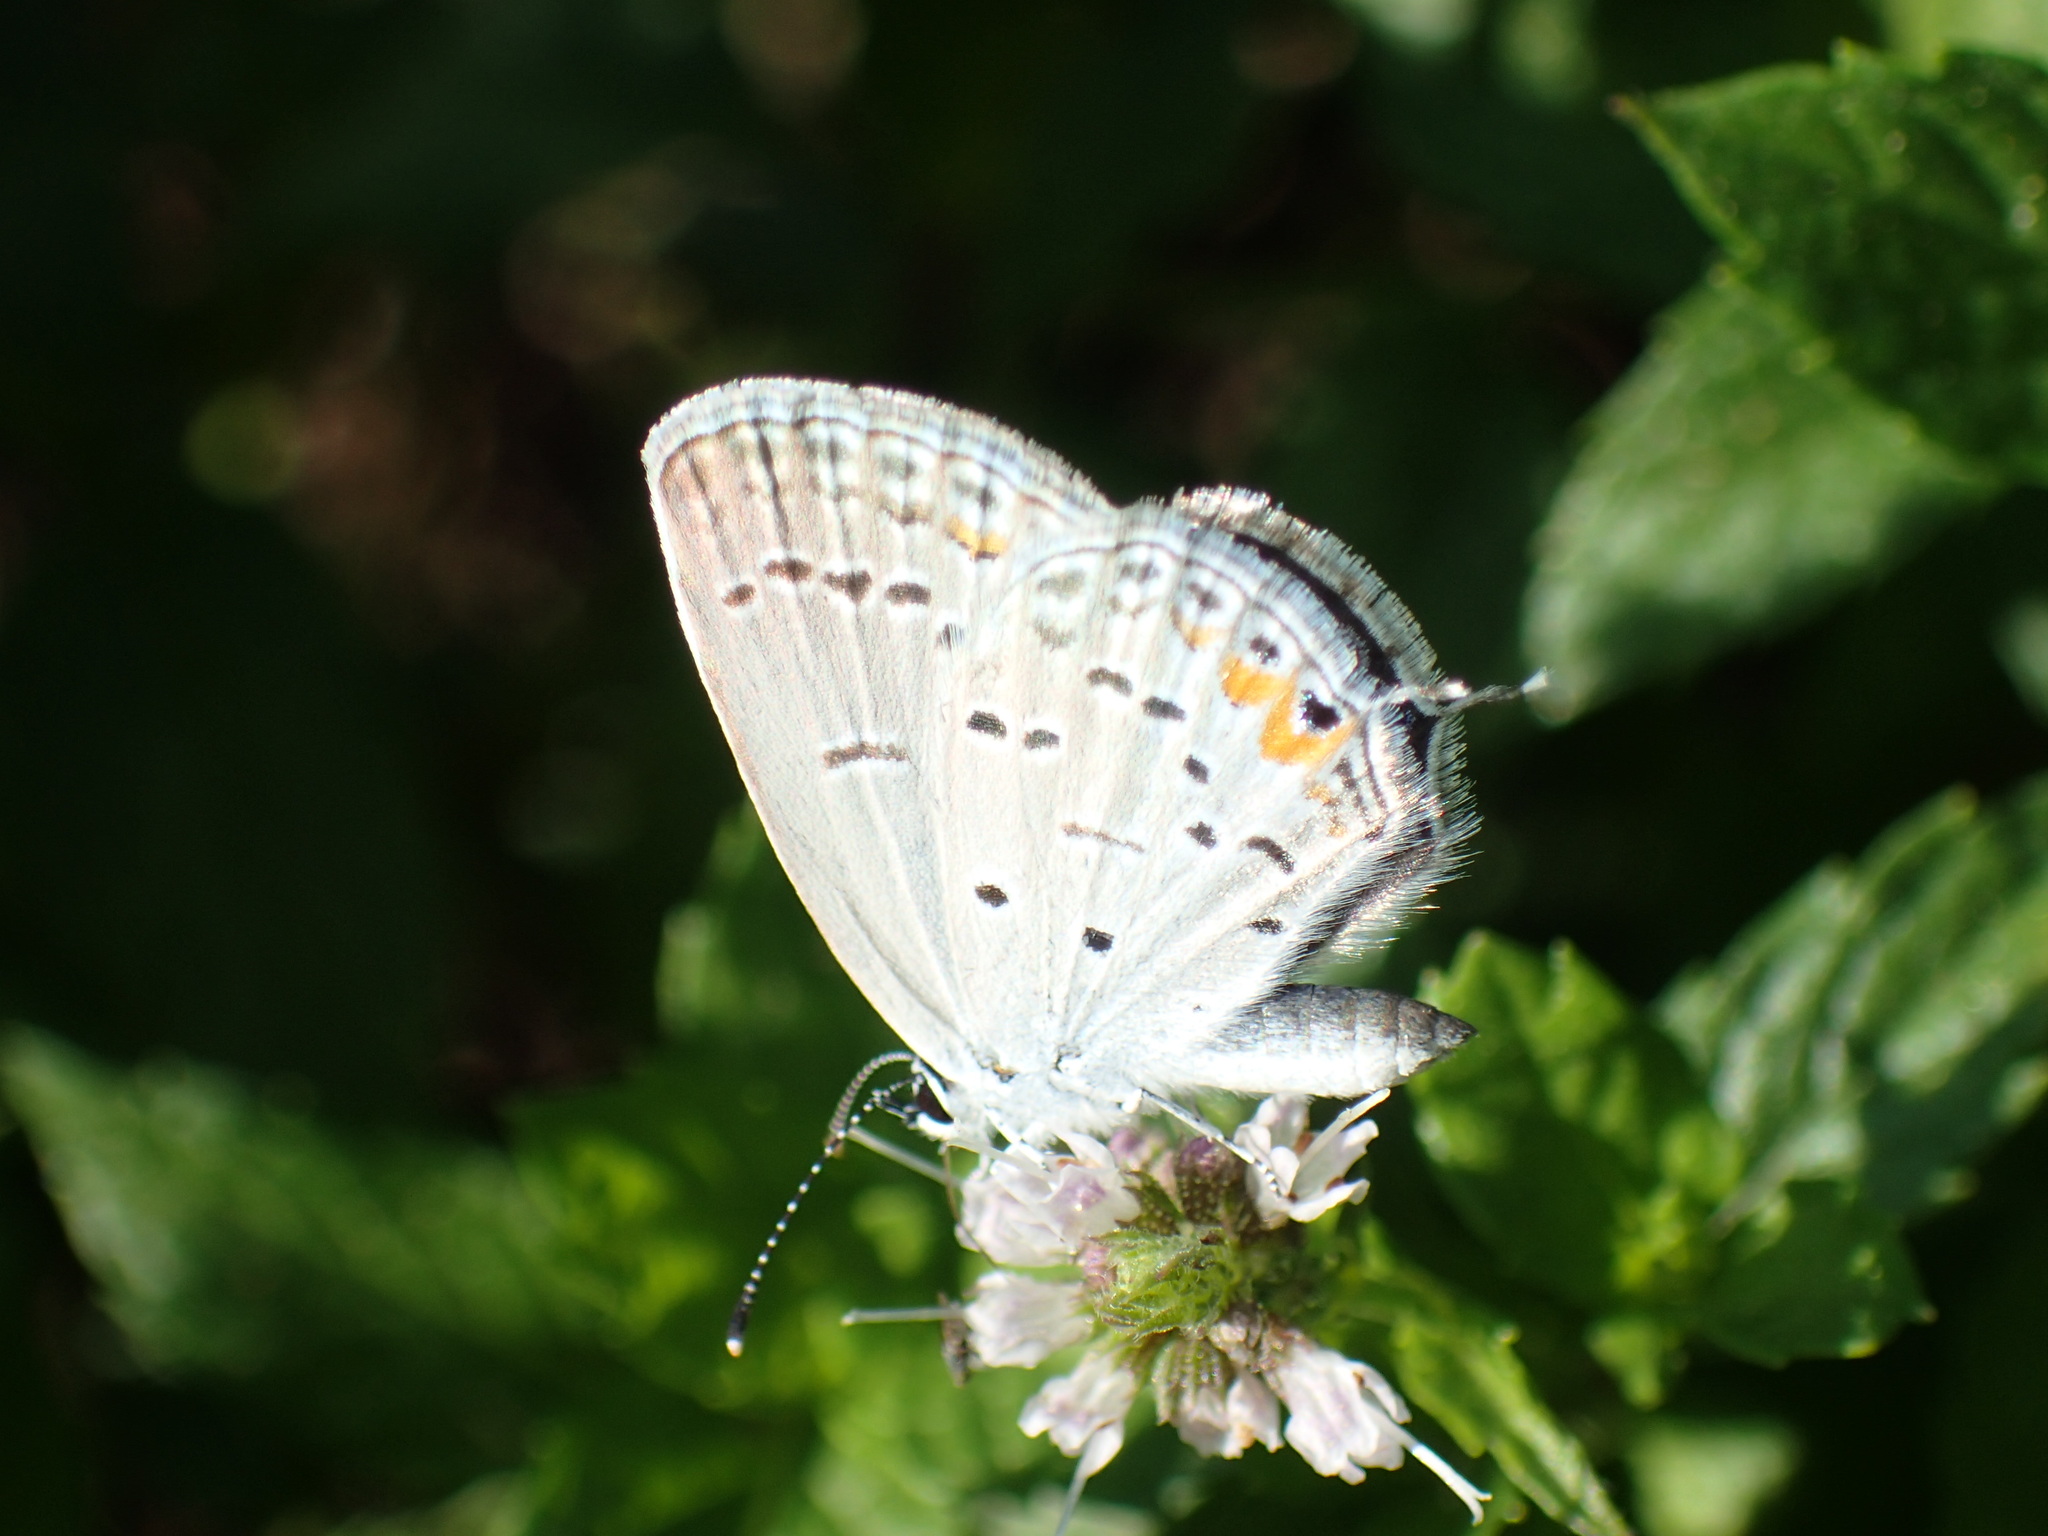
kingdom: Animalia
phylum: Arthropoda
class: Insecta
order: Lepidoptera
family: Lycaenidae
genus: Elkalyce
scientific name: Elkalyce comyntas
